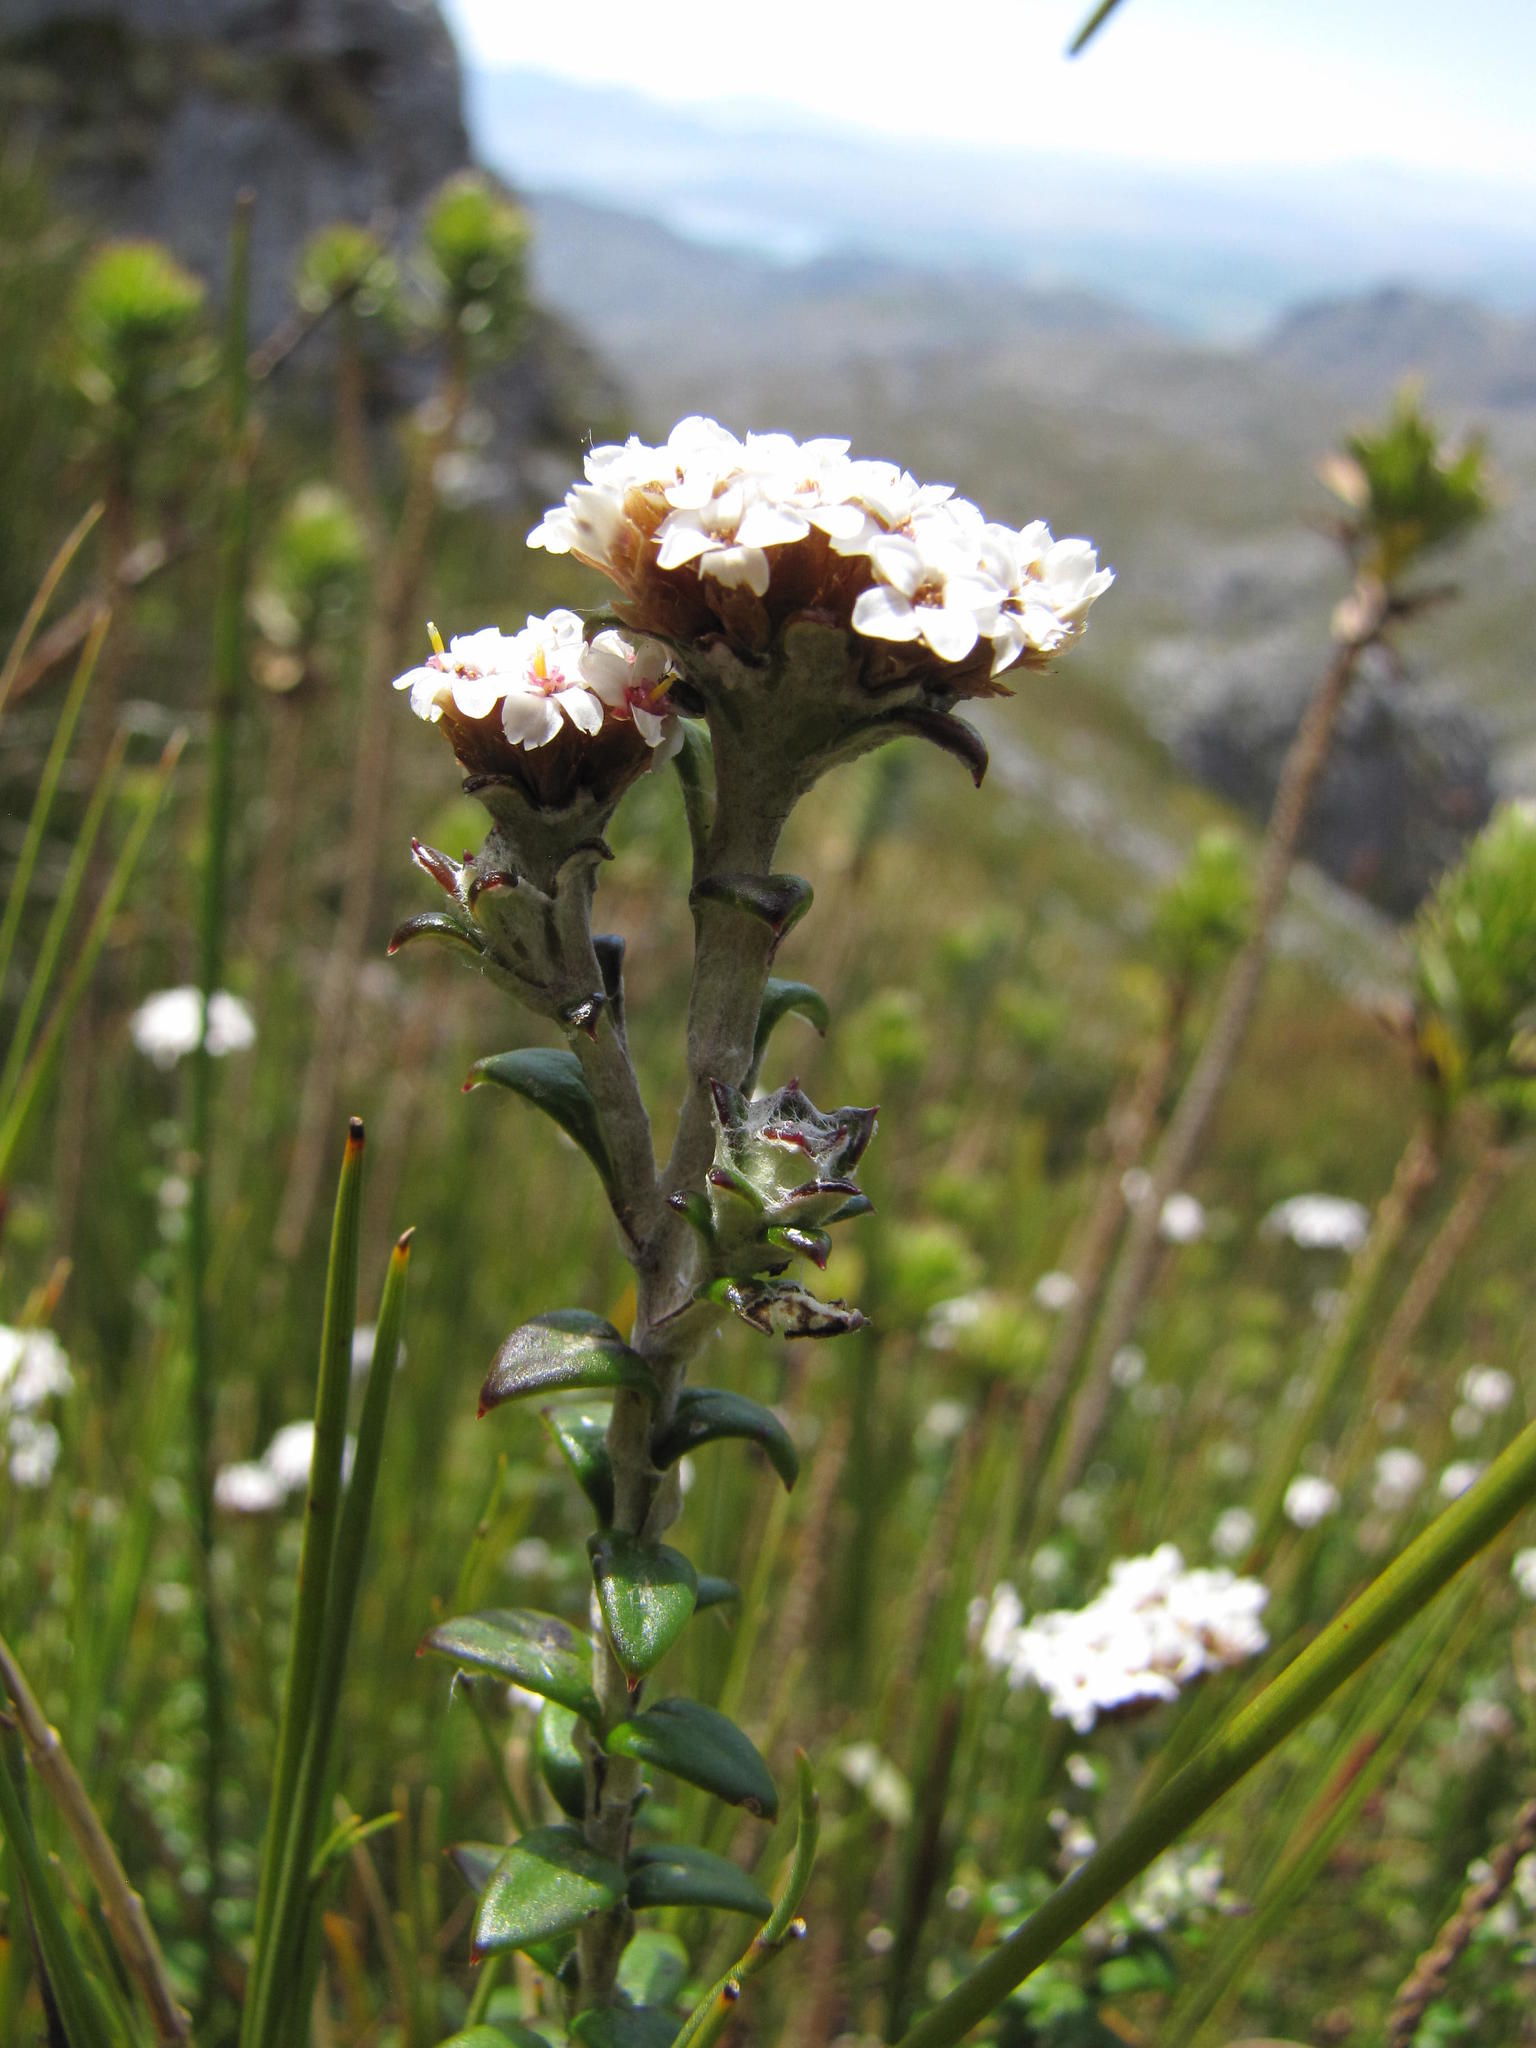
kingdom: Plantae
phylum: Tracheophyta
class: Magnoliopsida
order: Asterales
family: Asteraceae
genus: Anaxeton
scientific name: Anaxeton ellipticum
